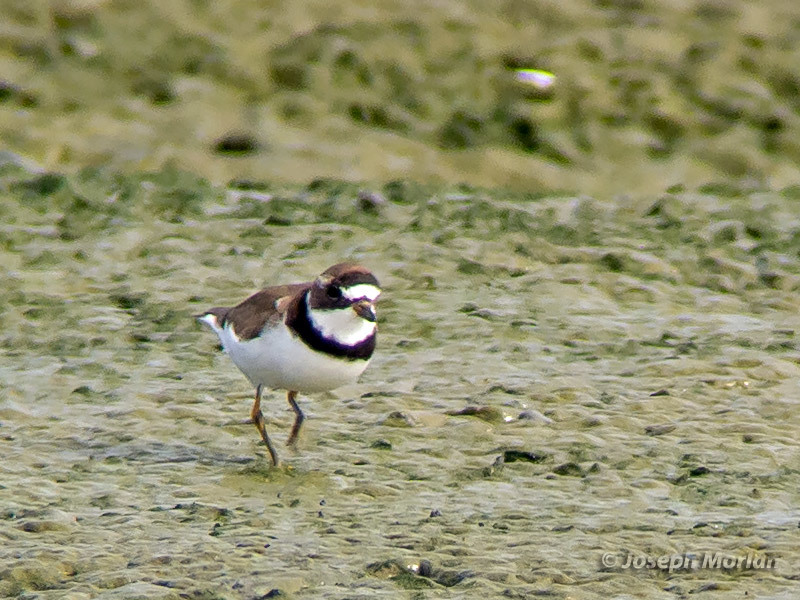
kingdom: Animalia
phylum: Chordata
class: Aves
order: Charadriiformes
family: Charadriidae
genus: Charadrius
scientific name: Charadrius semipalmatus
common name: Semipalmated plover
